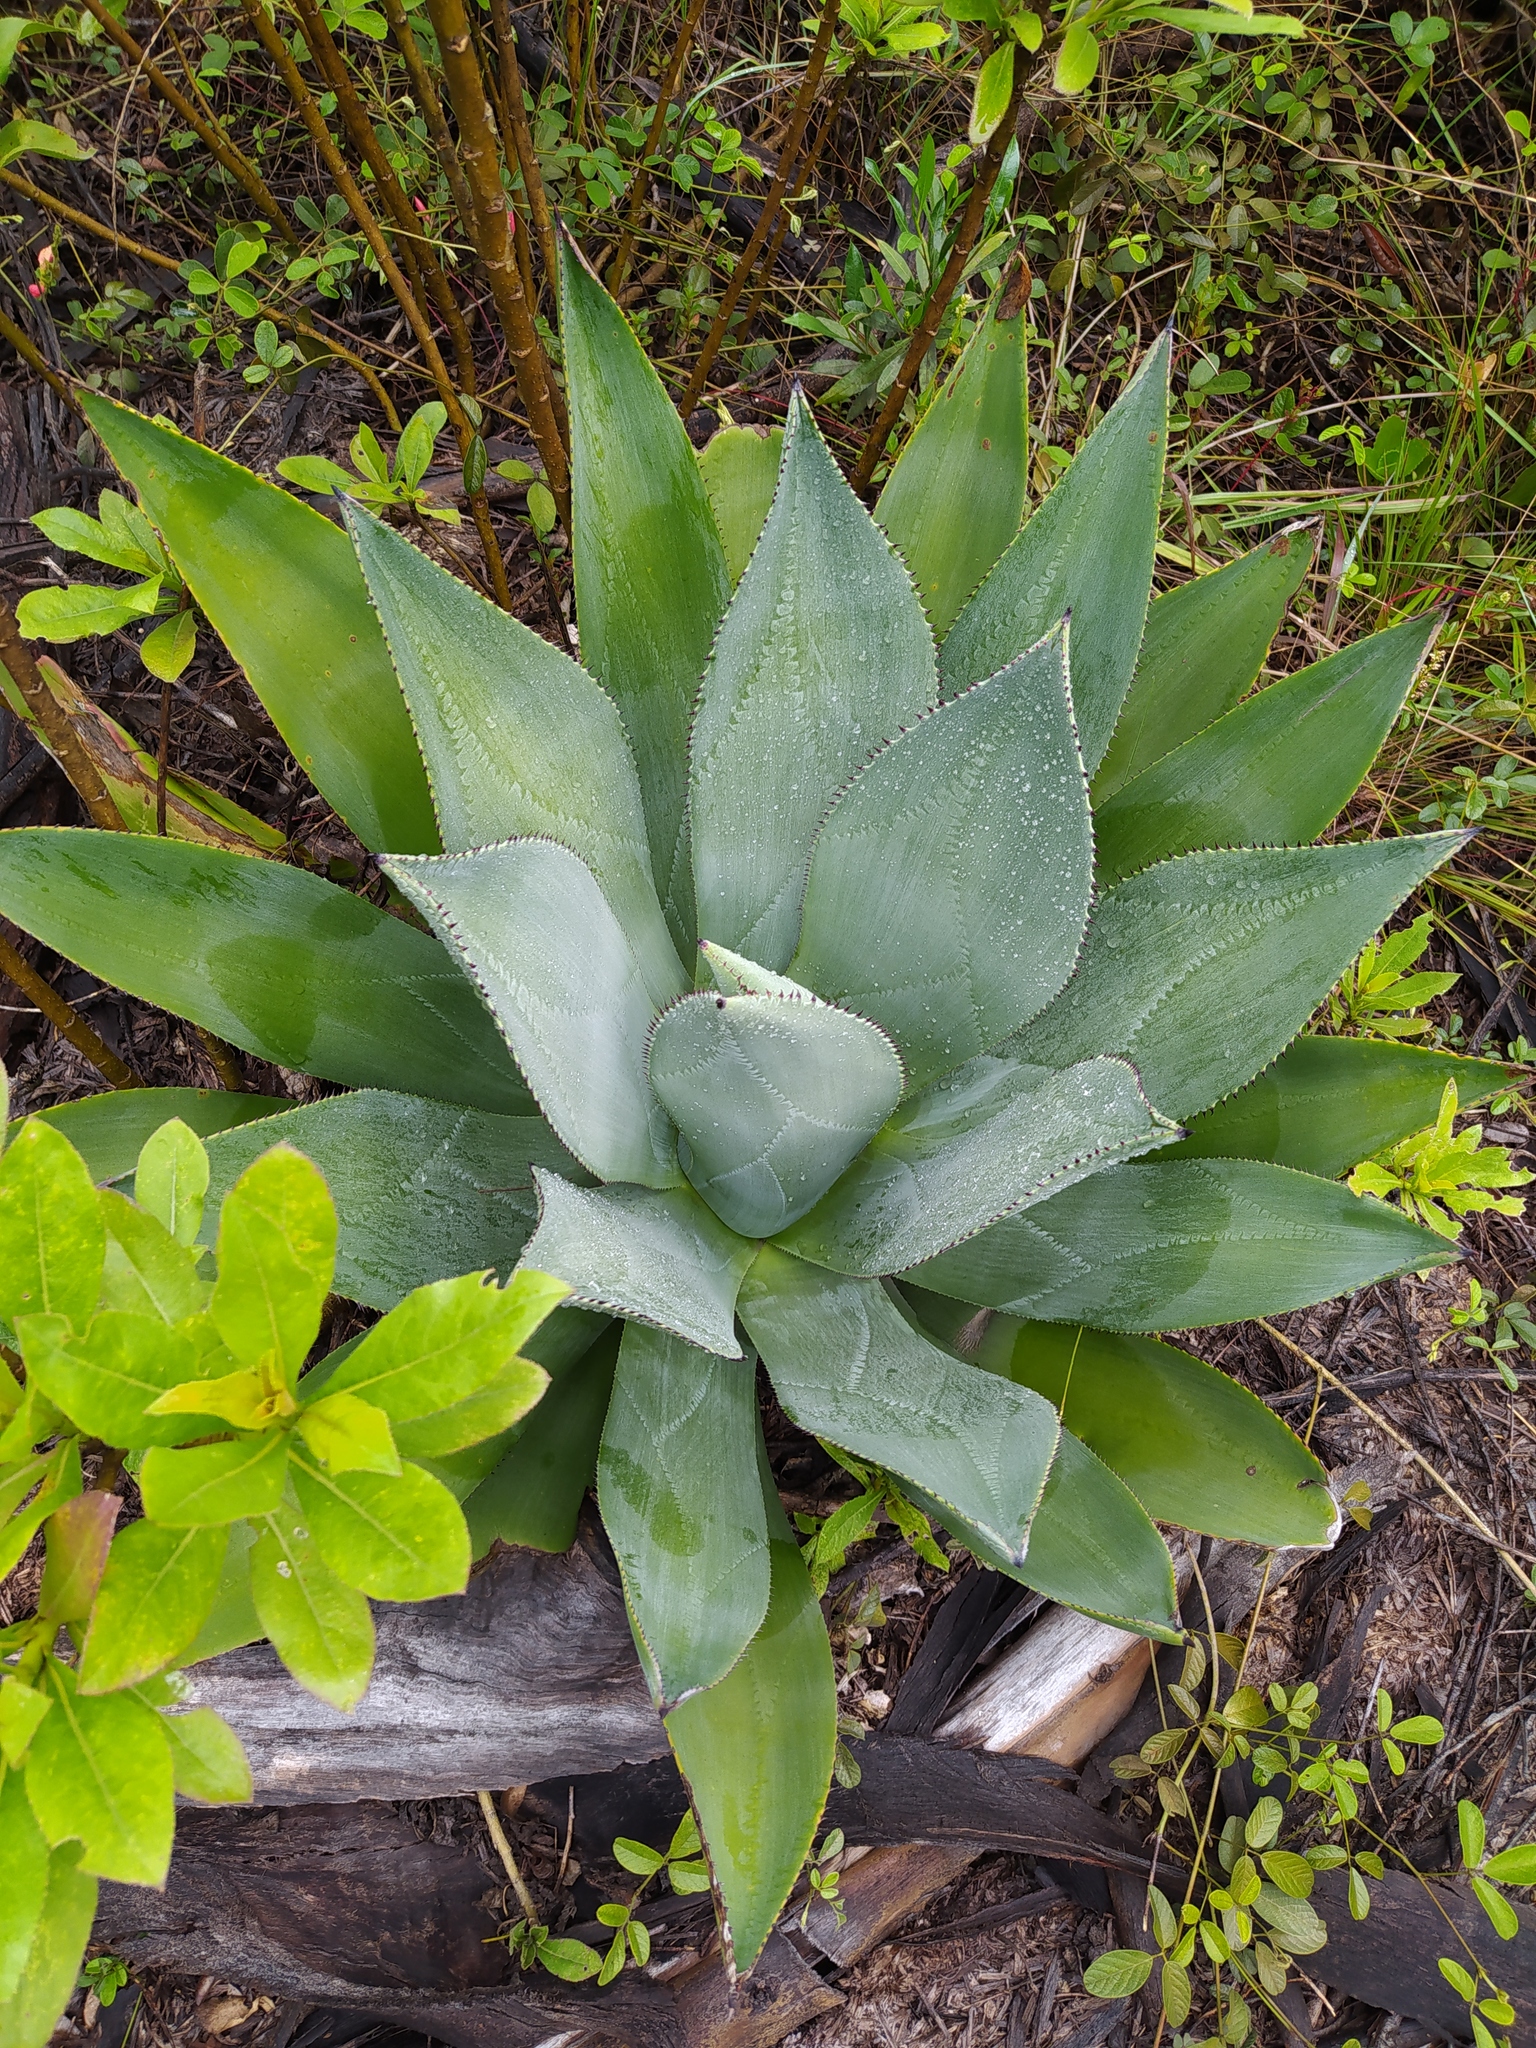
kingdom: Plantae
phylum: Tracheophyta
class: Liliopsida
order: Asparagales
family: Asparagaceae
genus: Agave
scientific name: Agave sylvesteriana
